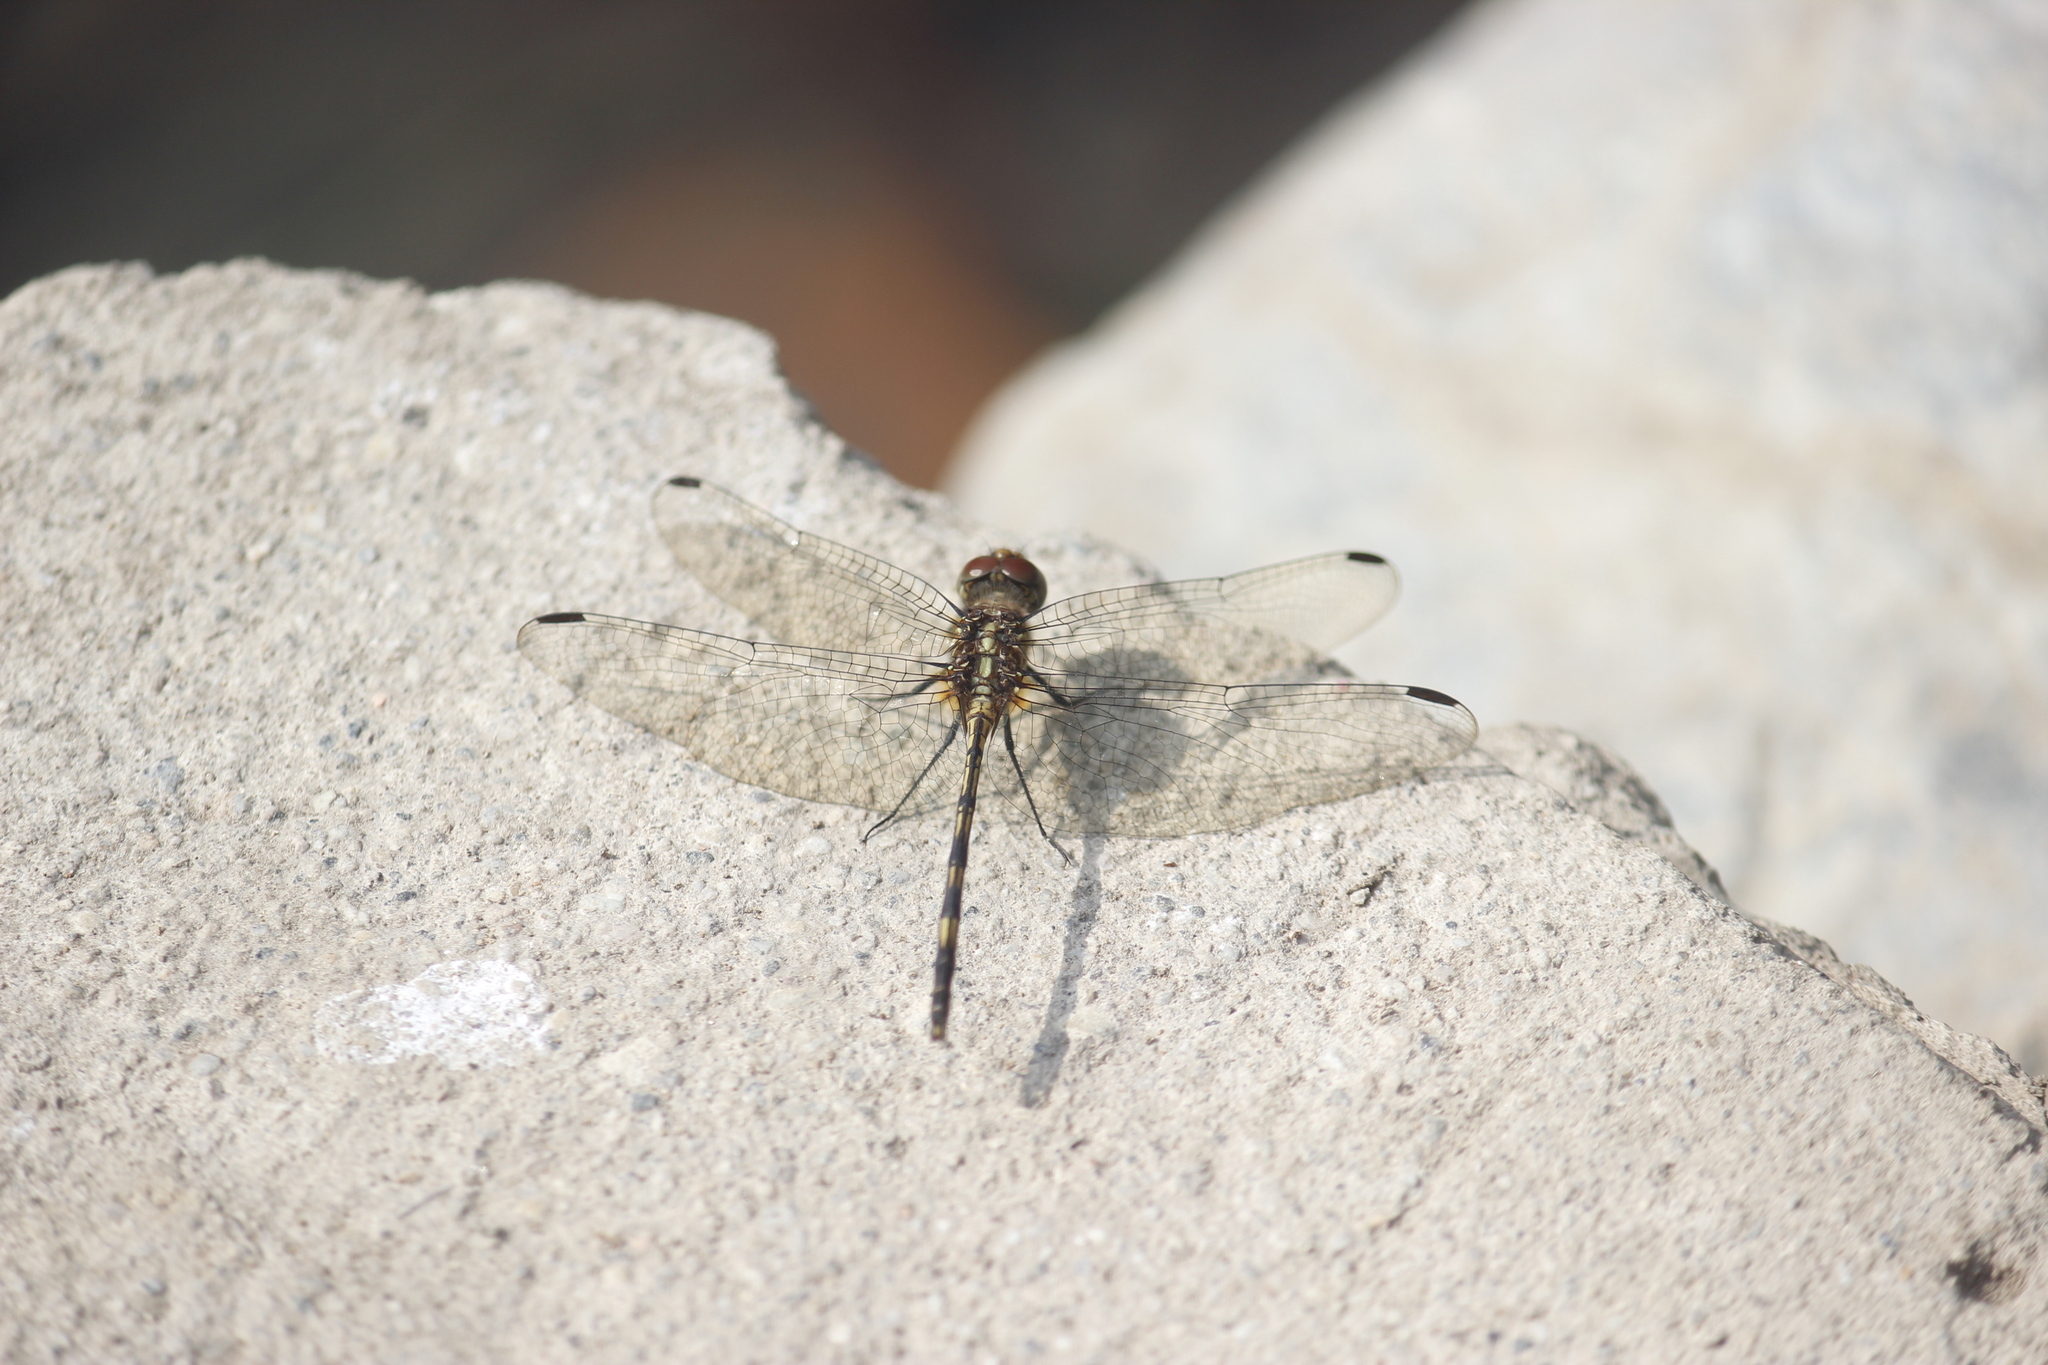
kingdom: Animalia
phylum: Arthropoda
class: Insecta
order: Odonata
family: Libellulidae
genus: Dythemis
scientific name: Dythemis sterilis
